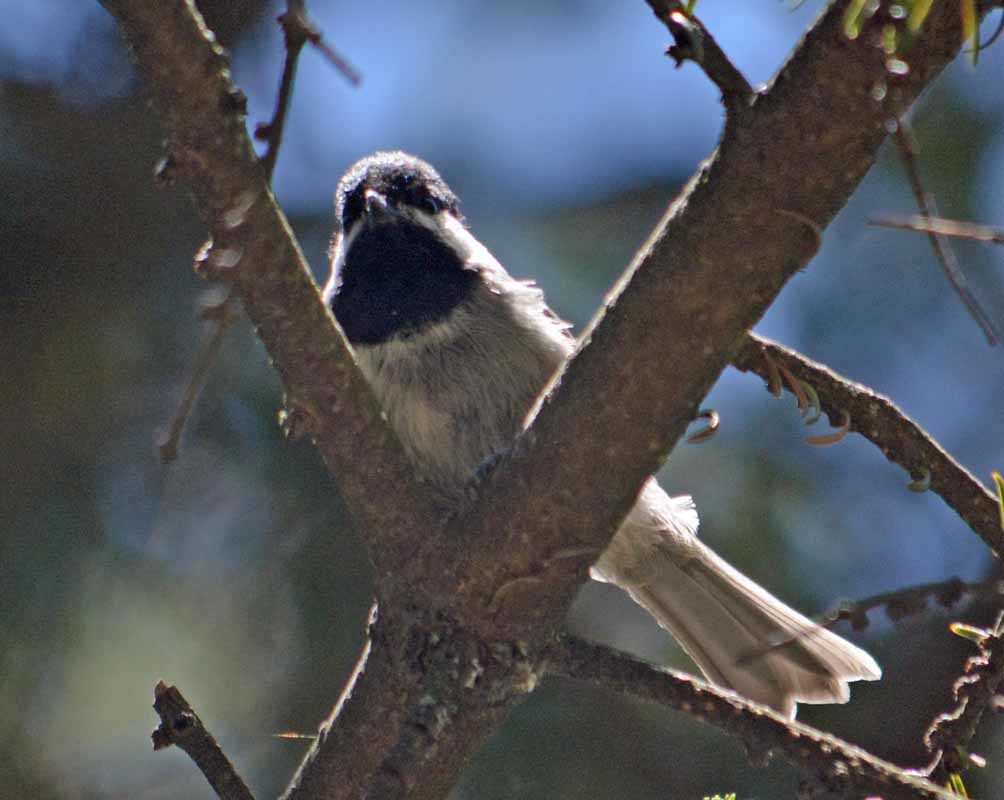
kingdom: Animalia
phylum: Chordata
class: Aves
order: Passeriformes
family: Paridae
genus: Poecile
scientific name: Poecile sclateri
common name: Mexican chickadee
